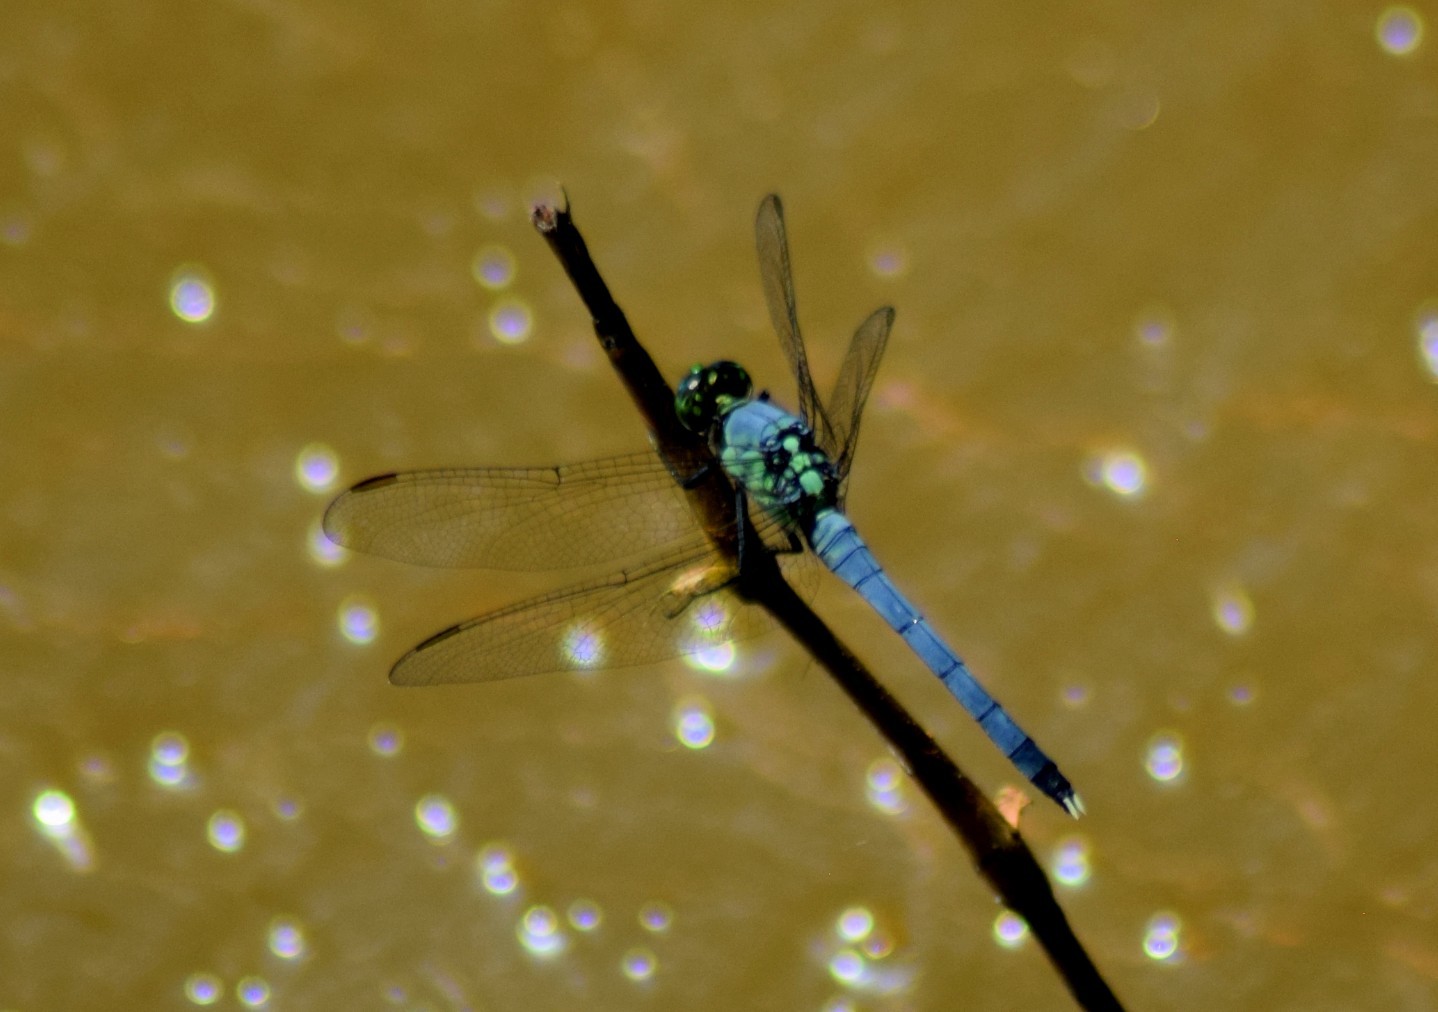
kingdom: Animalia
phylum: Arthropoda
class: Insecta
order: Odonata
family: Libellulidae
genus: Erythemis
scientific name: Erythemis simplicicollis
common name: Eastern pondhawk
